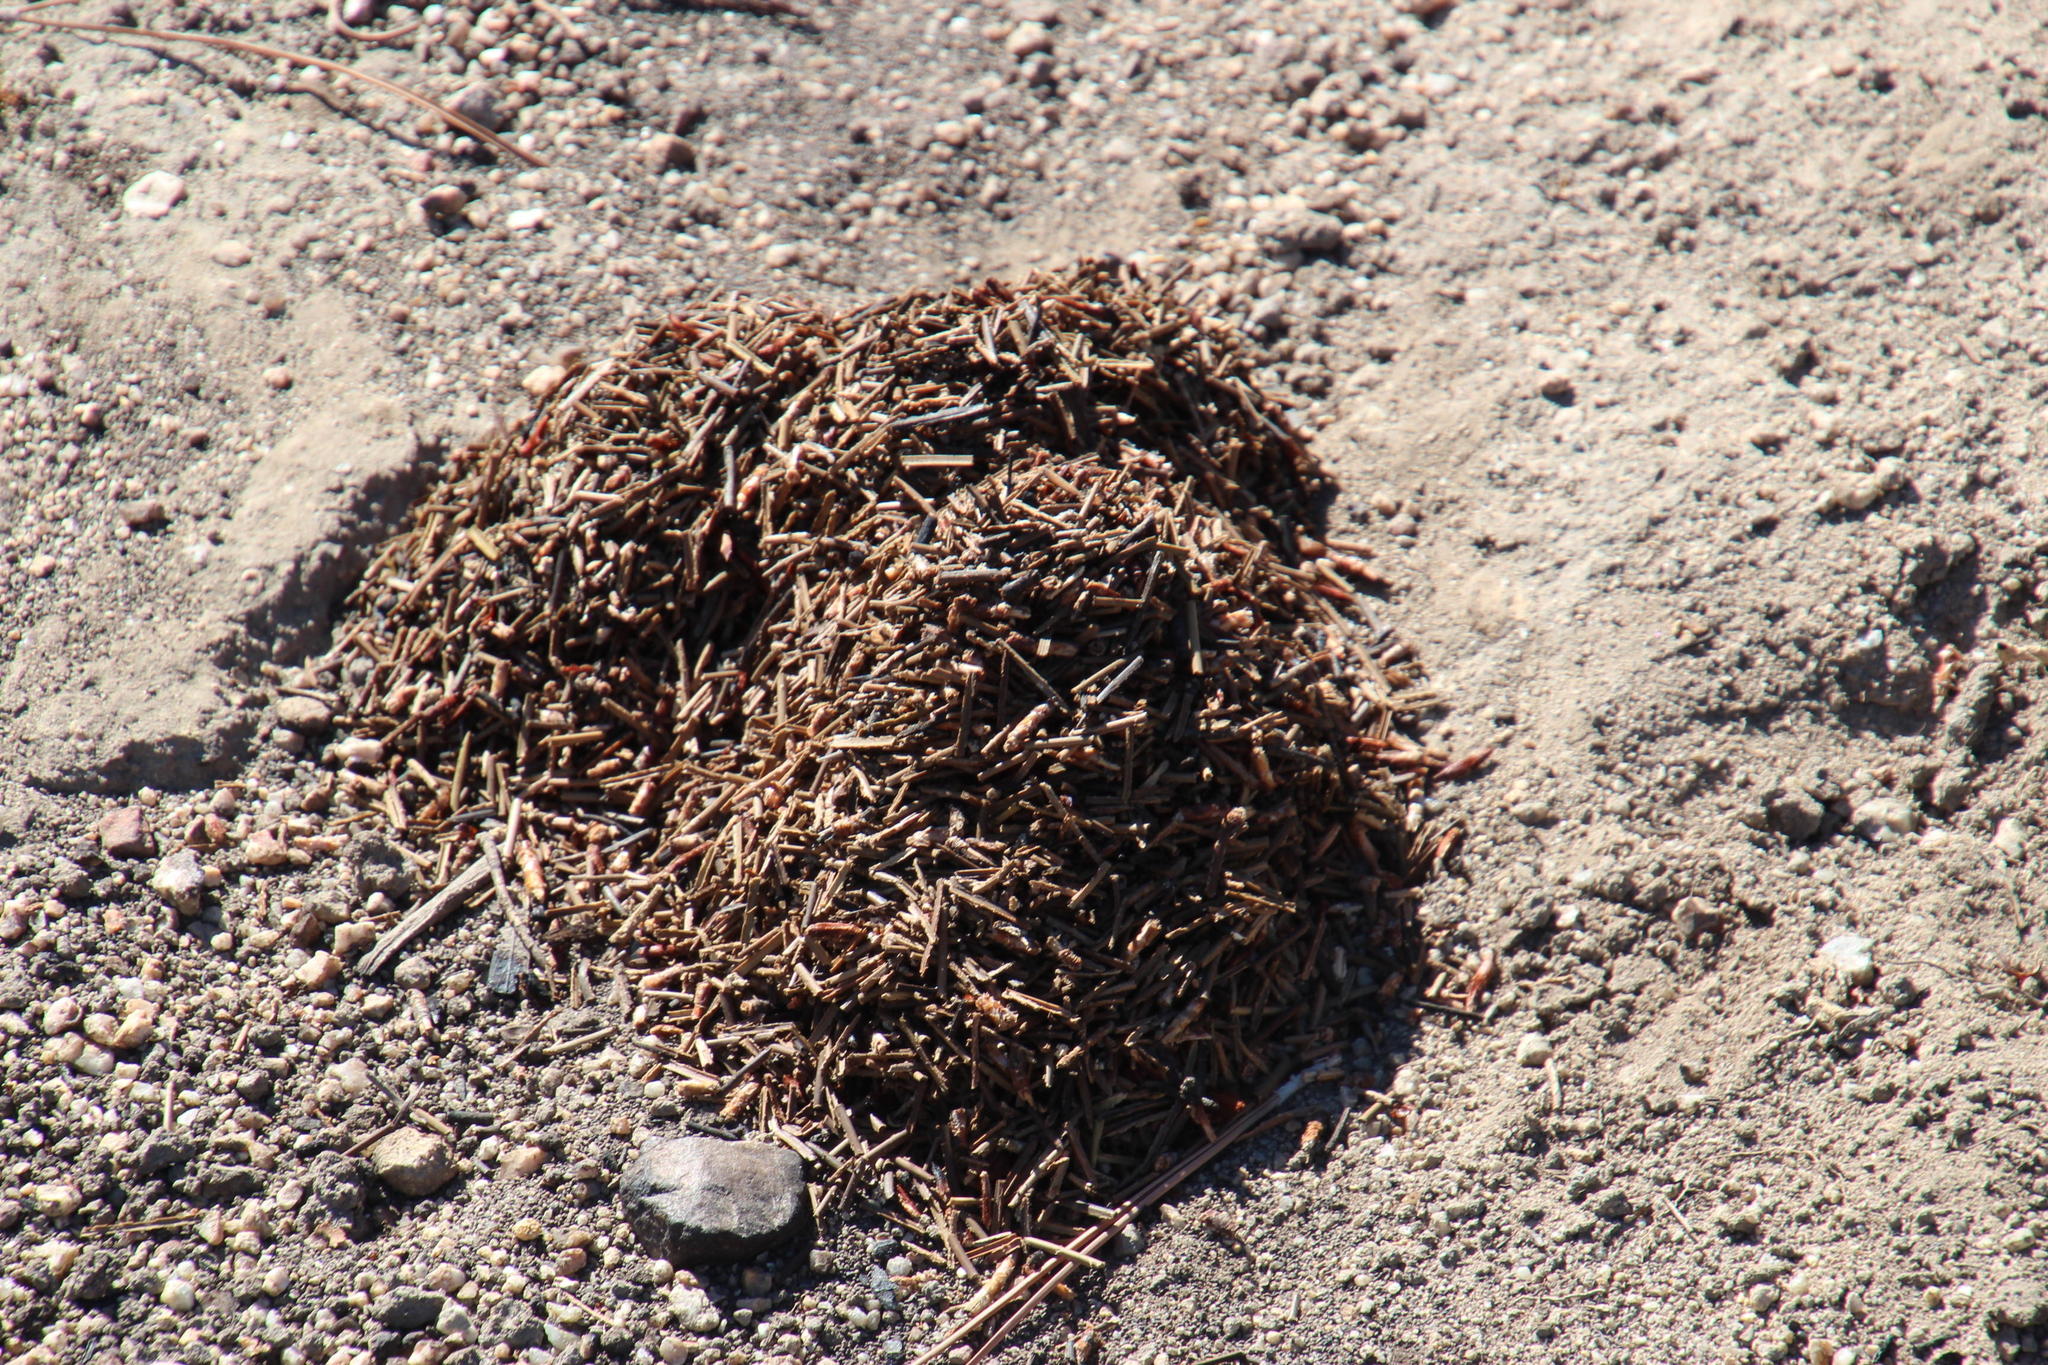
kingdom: Animalia
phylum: Arthropoda
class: Insecta
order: Blattodea
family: Hodotermitidae
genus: Microhodotermes
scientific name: Microhodotermes viator
